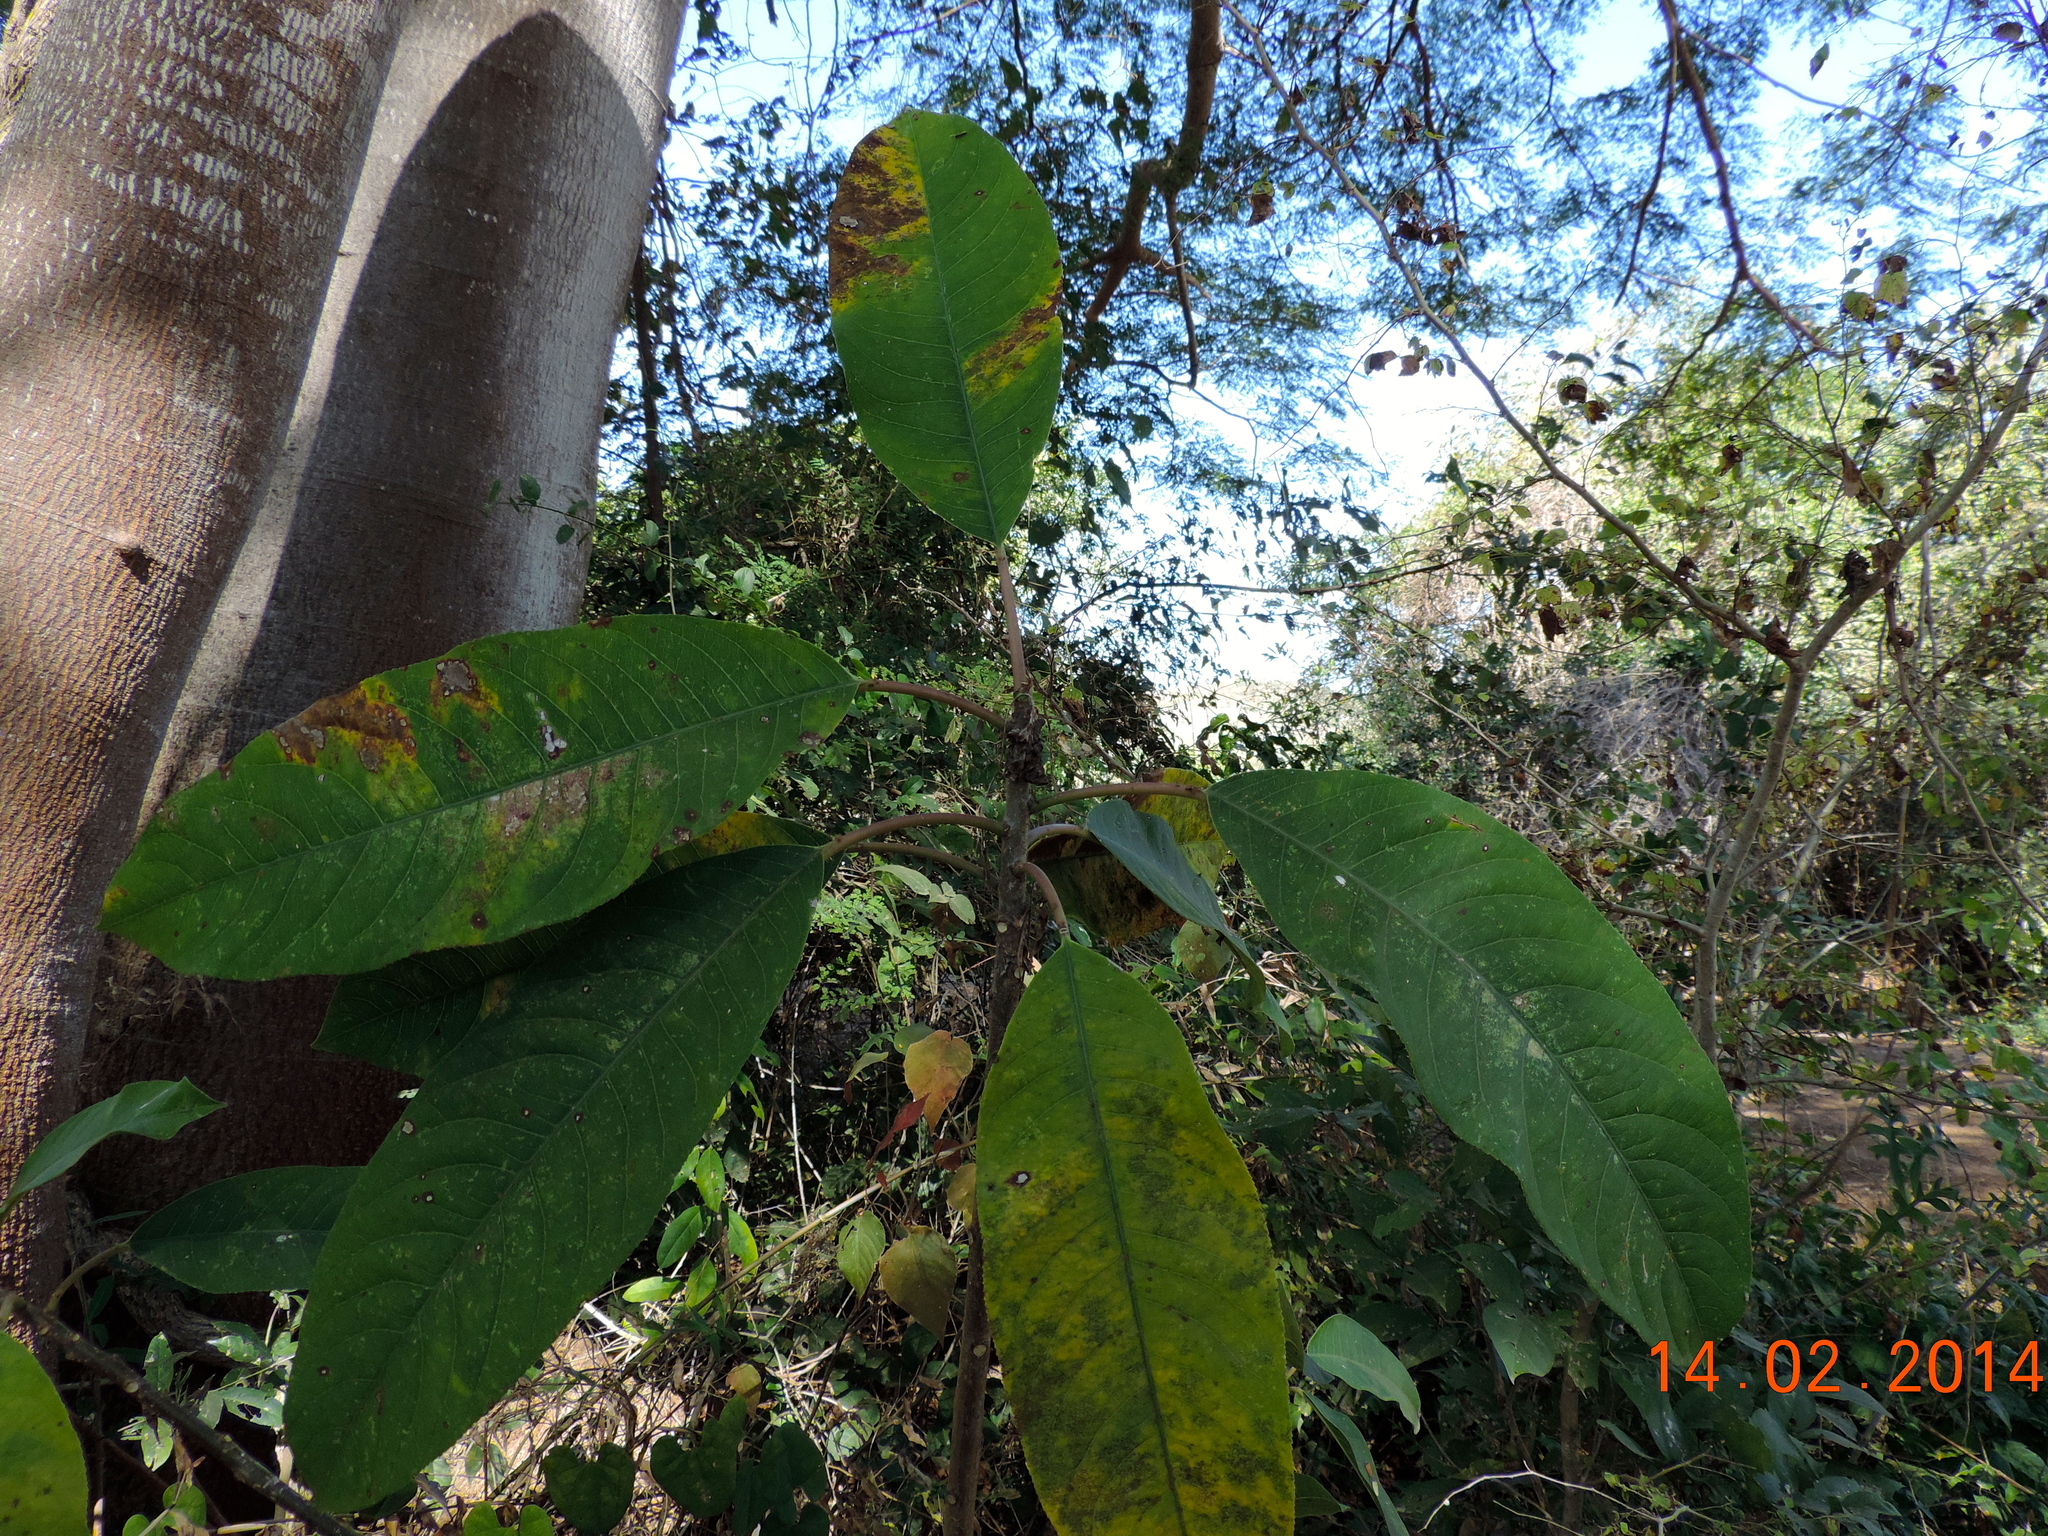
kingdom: Plantae
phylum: Tracheophyta
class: Magnoliopsida
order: Malpighiales
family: Euphorbiaceae
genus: Sapium
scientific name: Sapium lateriflorum
